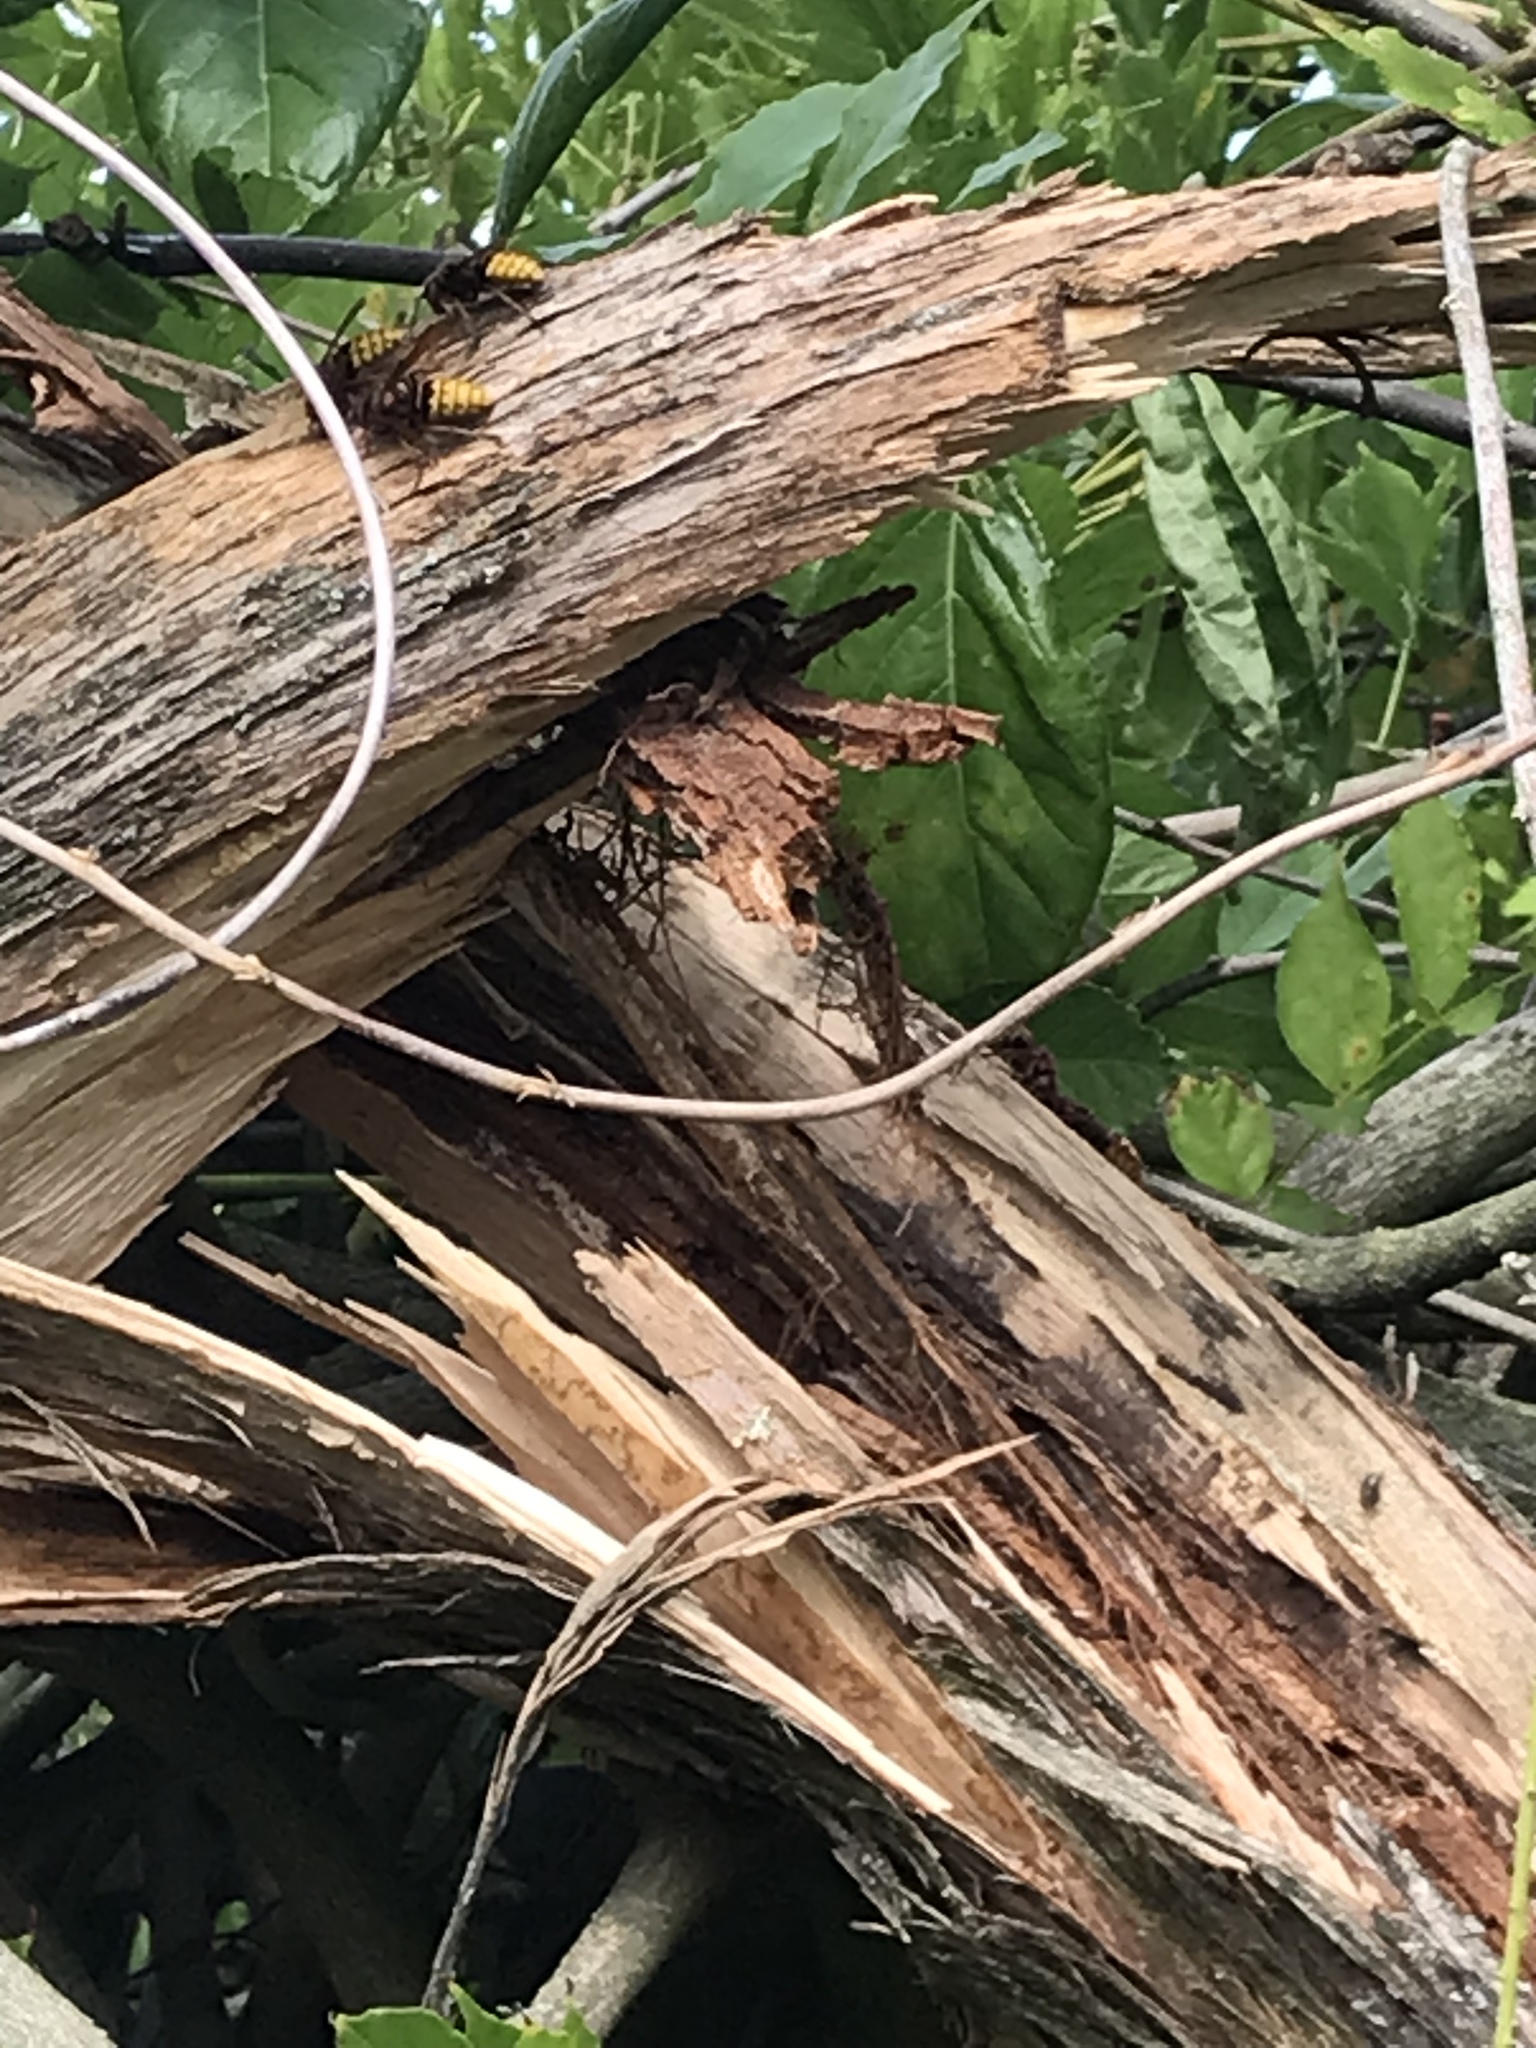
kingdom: Animalia
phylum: Arthropoda
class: Insecta
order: Hymenoptera
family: Vespidae
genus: Vespa
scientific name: Vespa crabro
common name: Hornet
